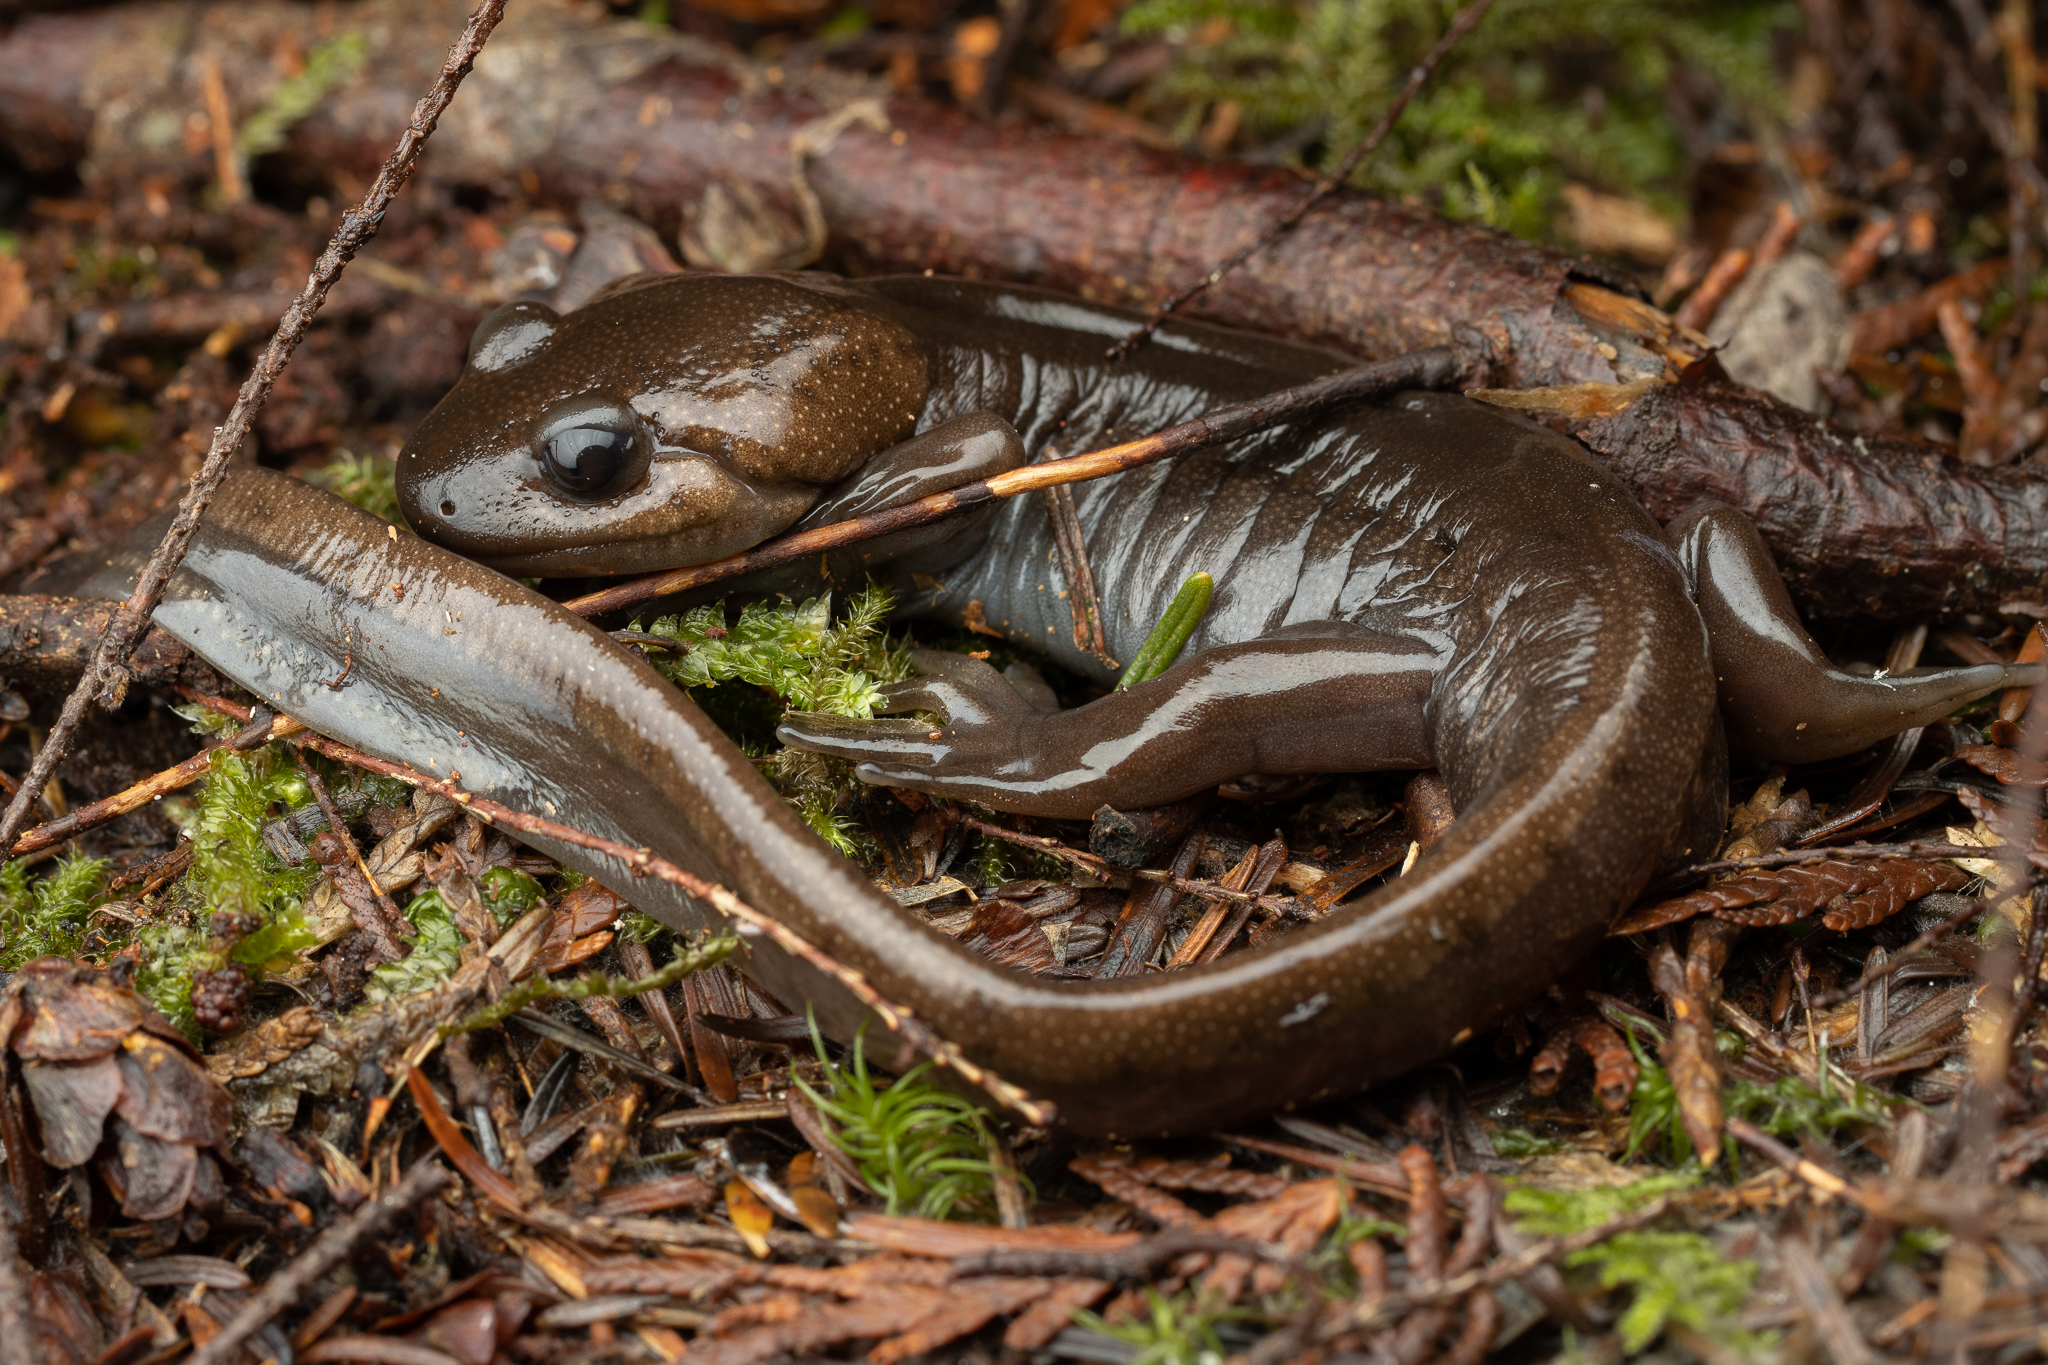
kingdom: Animalia
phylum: Chordata
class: Amphibia
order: Caudata
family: Ambystomatidae
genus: Ambystoma
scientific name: Ambystoma gracile
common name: Northwestern salamander
